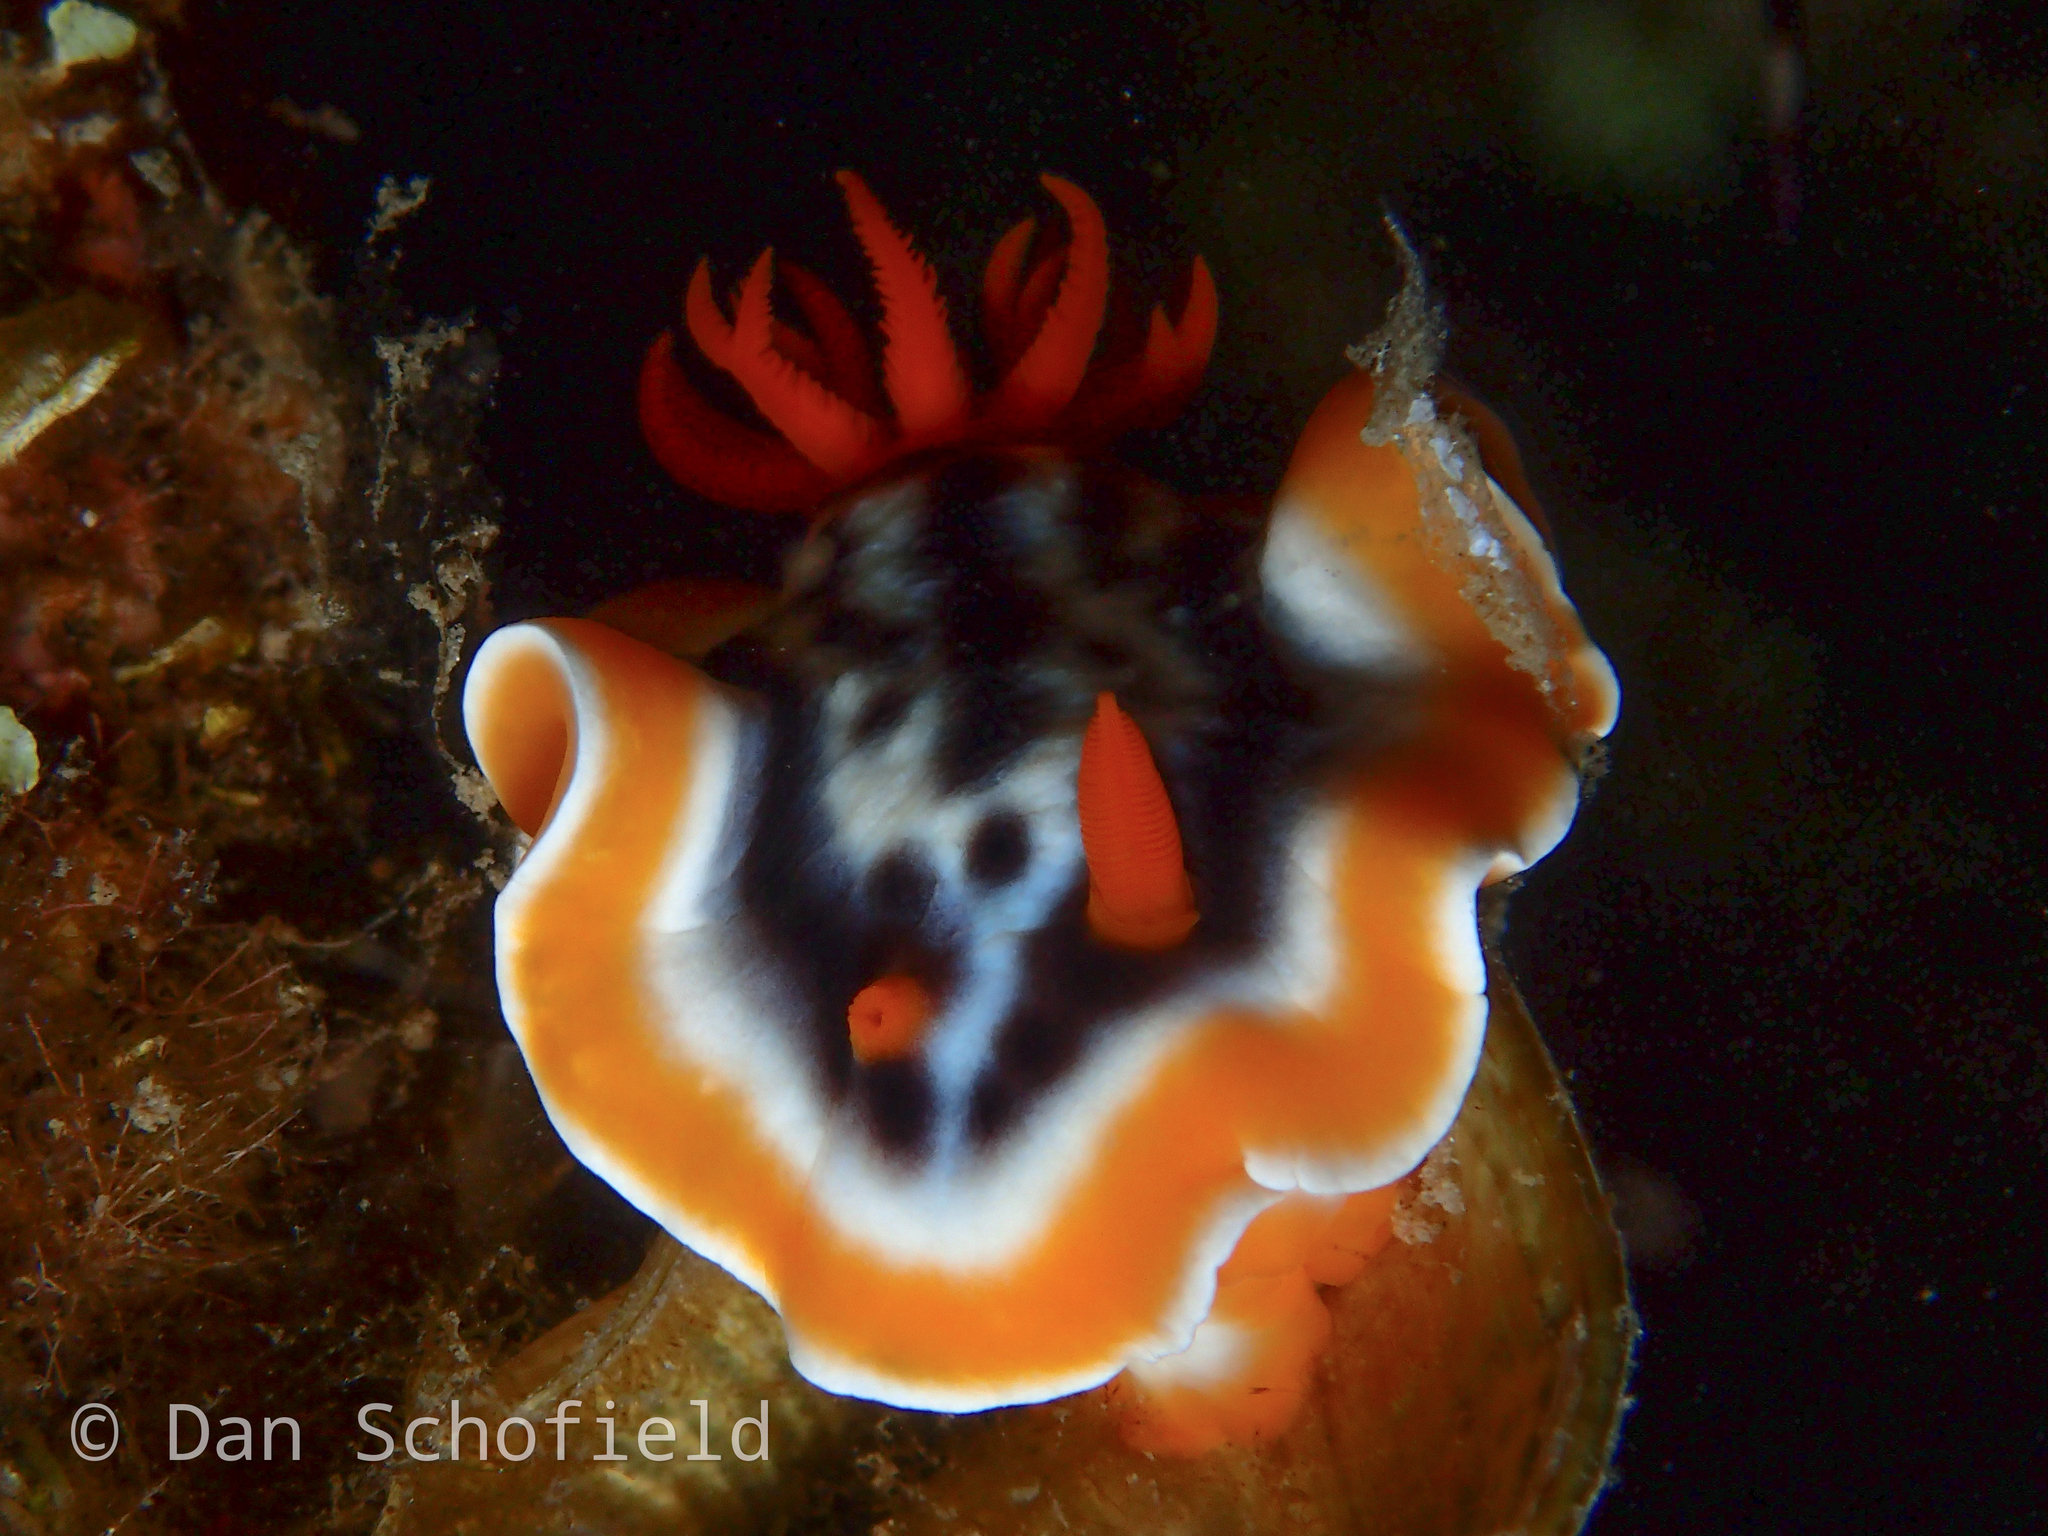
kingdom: Animalia
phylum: Mollusca
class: Gastropoda
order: Nudibranchia
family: Chromodorididae
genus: Chromodoris
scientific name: Chromodoris magnifica
